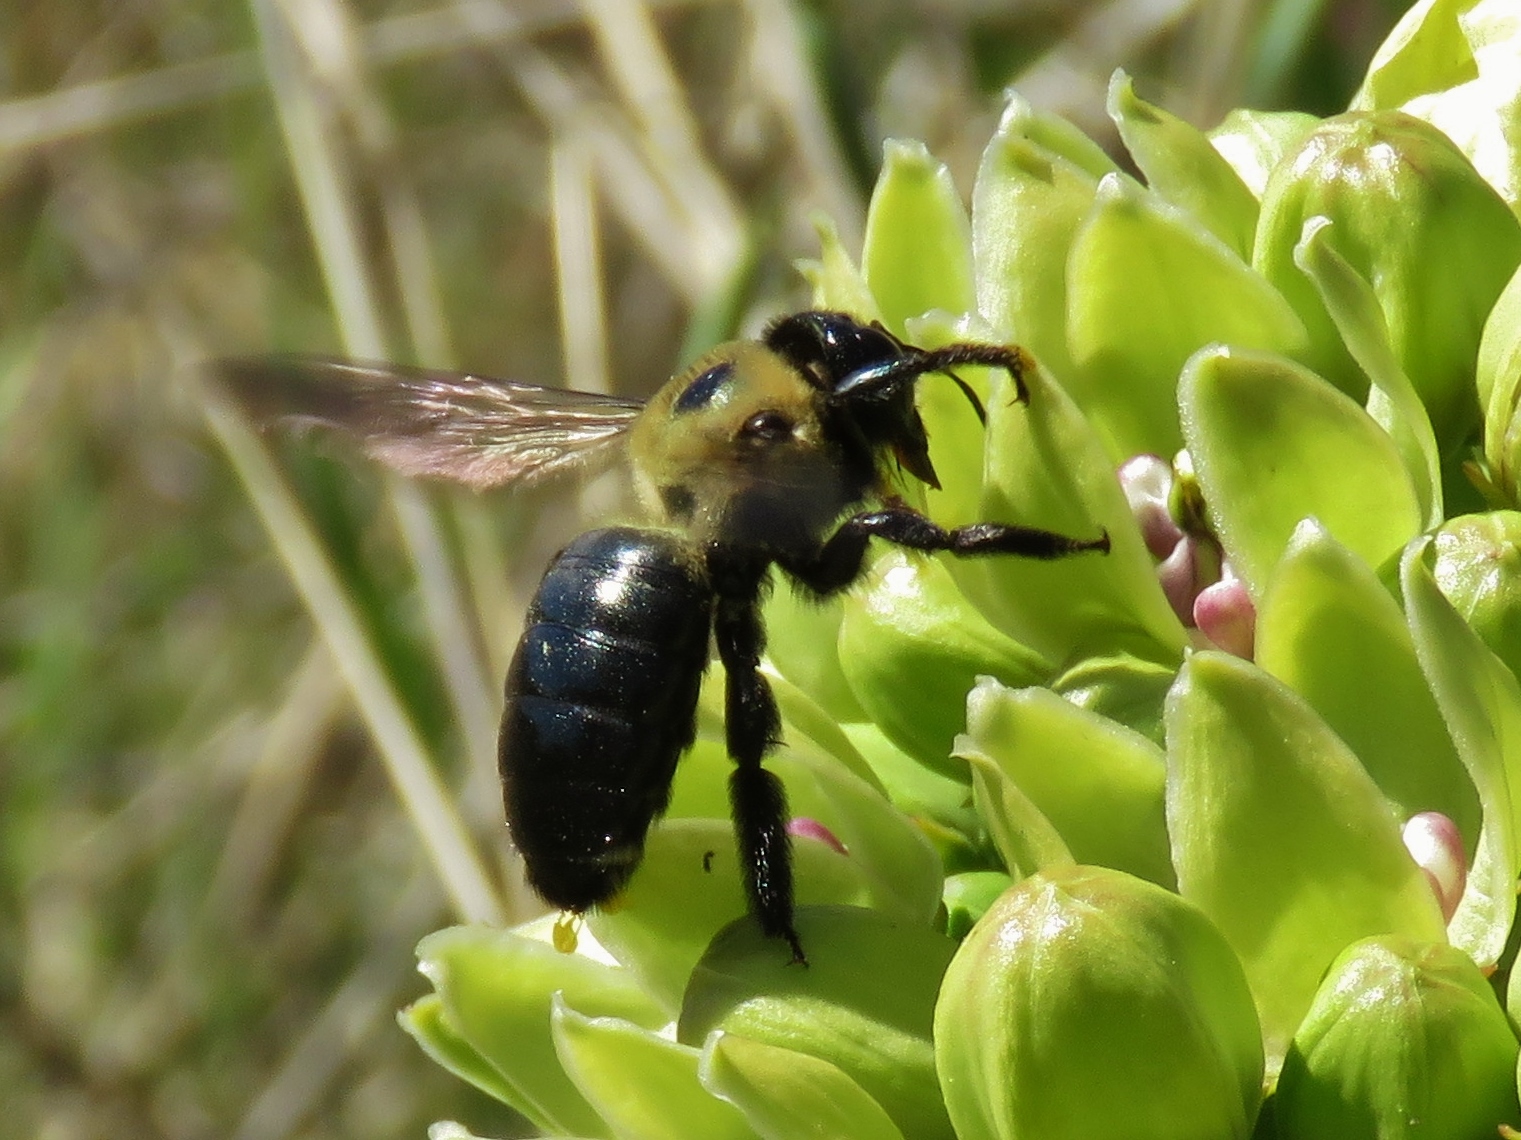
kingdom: Animalia
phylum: Arthropoda
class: Insecta
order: Hymenoptera
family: Apidae
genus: Xylocopa
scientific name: Xylocopa virginica
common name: Carpenter bee
